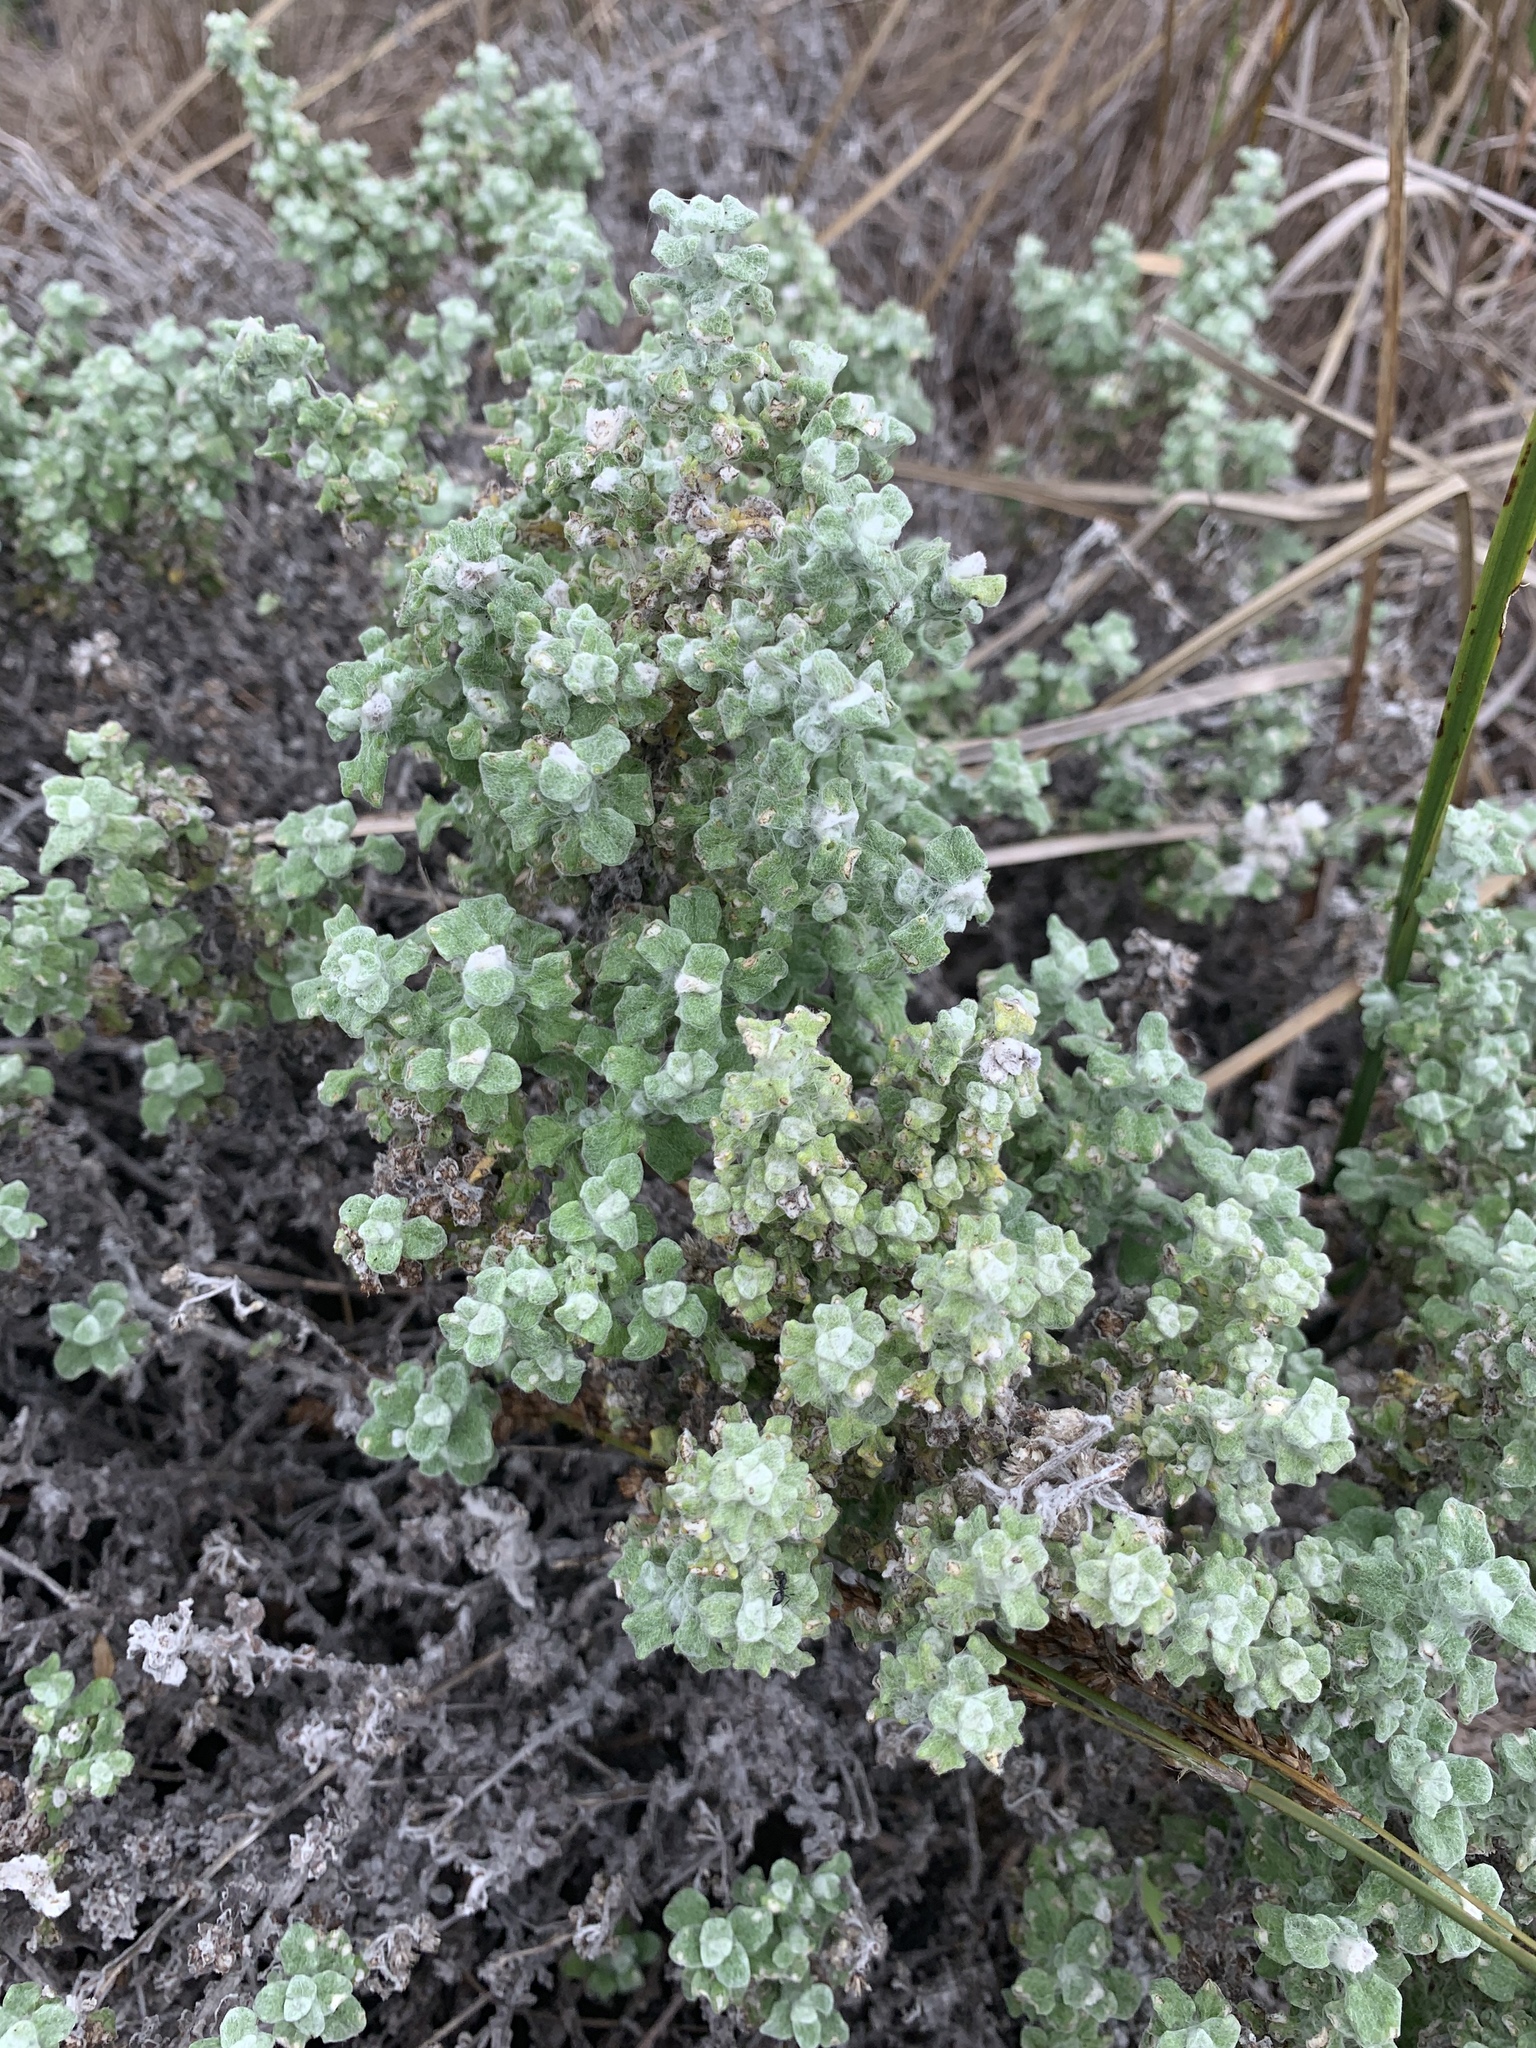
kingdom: Plantae
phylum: Tracheophyta
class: Magnoliopsida
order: Asterales
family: Asteraceae
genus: Helichrysum
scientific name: Helichrysum patulum
